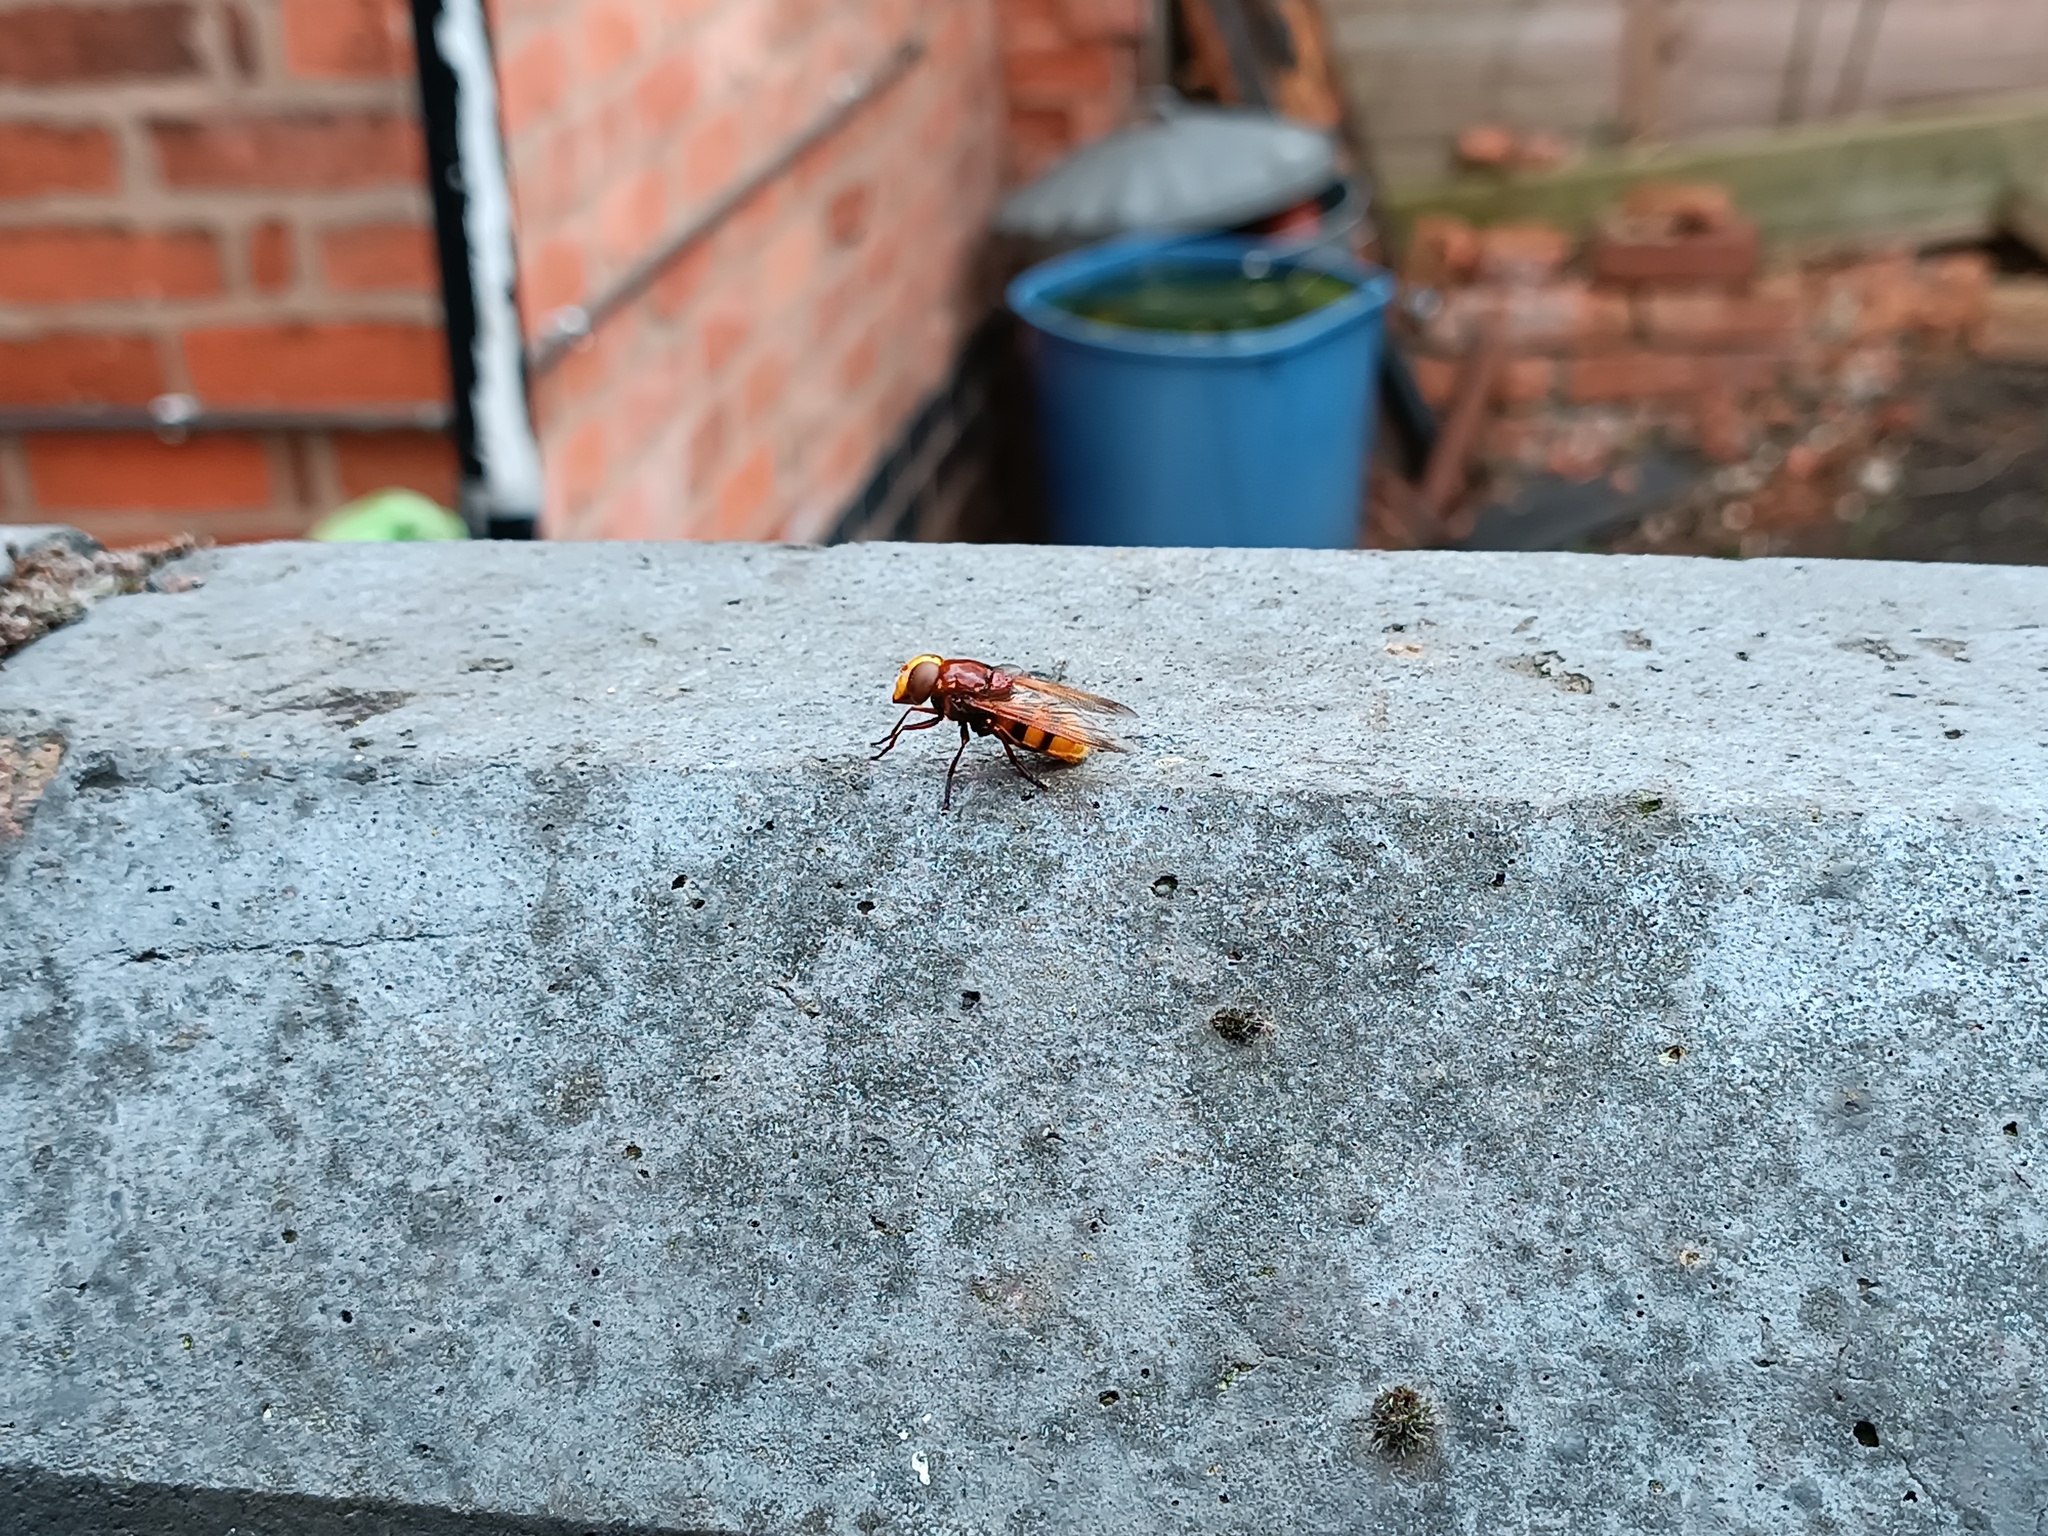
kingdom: Animalia
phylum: Arthropoda
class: Insecta
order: Diptera
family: Syrphidae
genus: Volucella
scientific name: Volucella zonaria
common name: Hornet hoverfly
